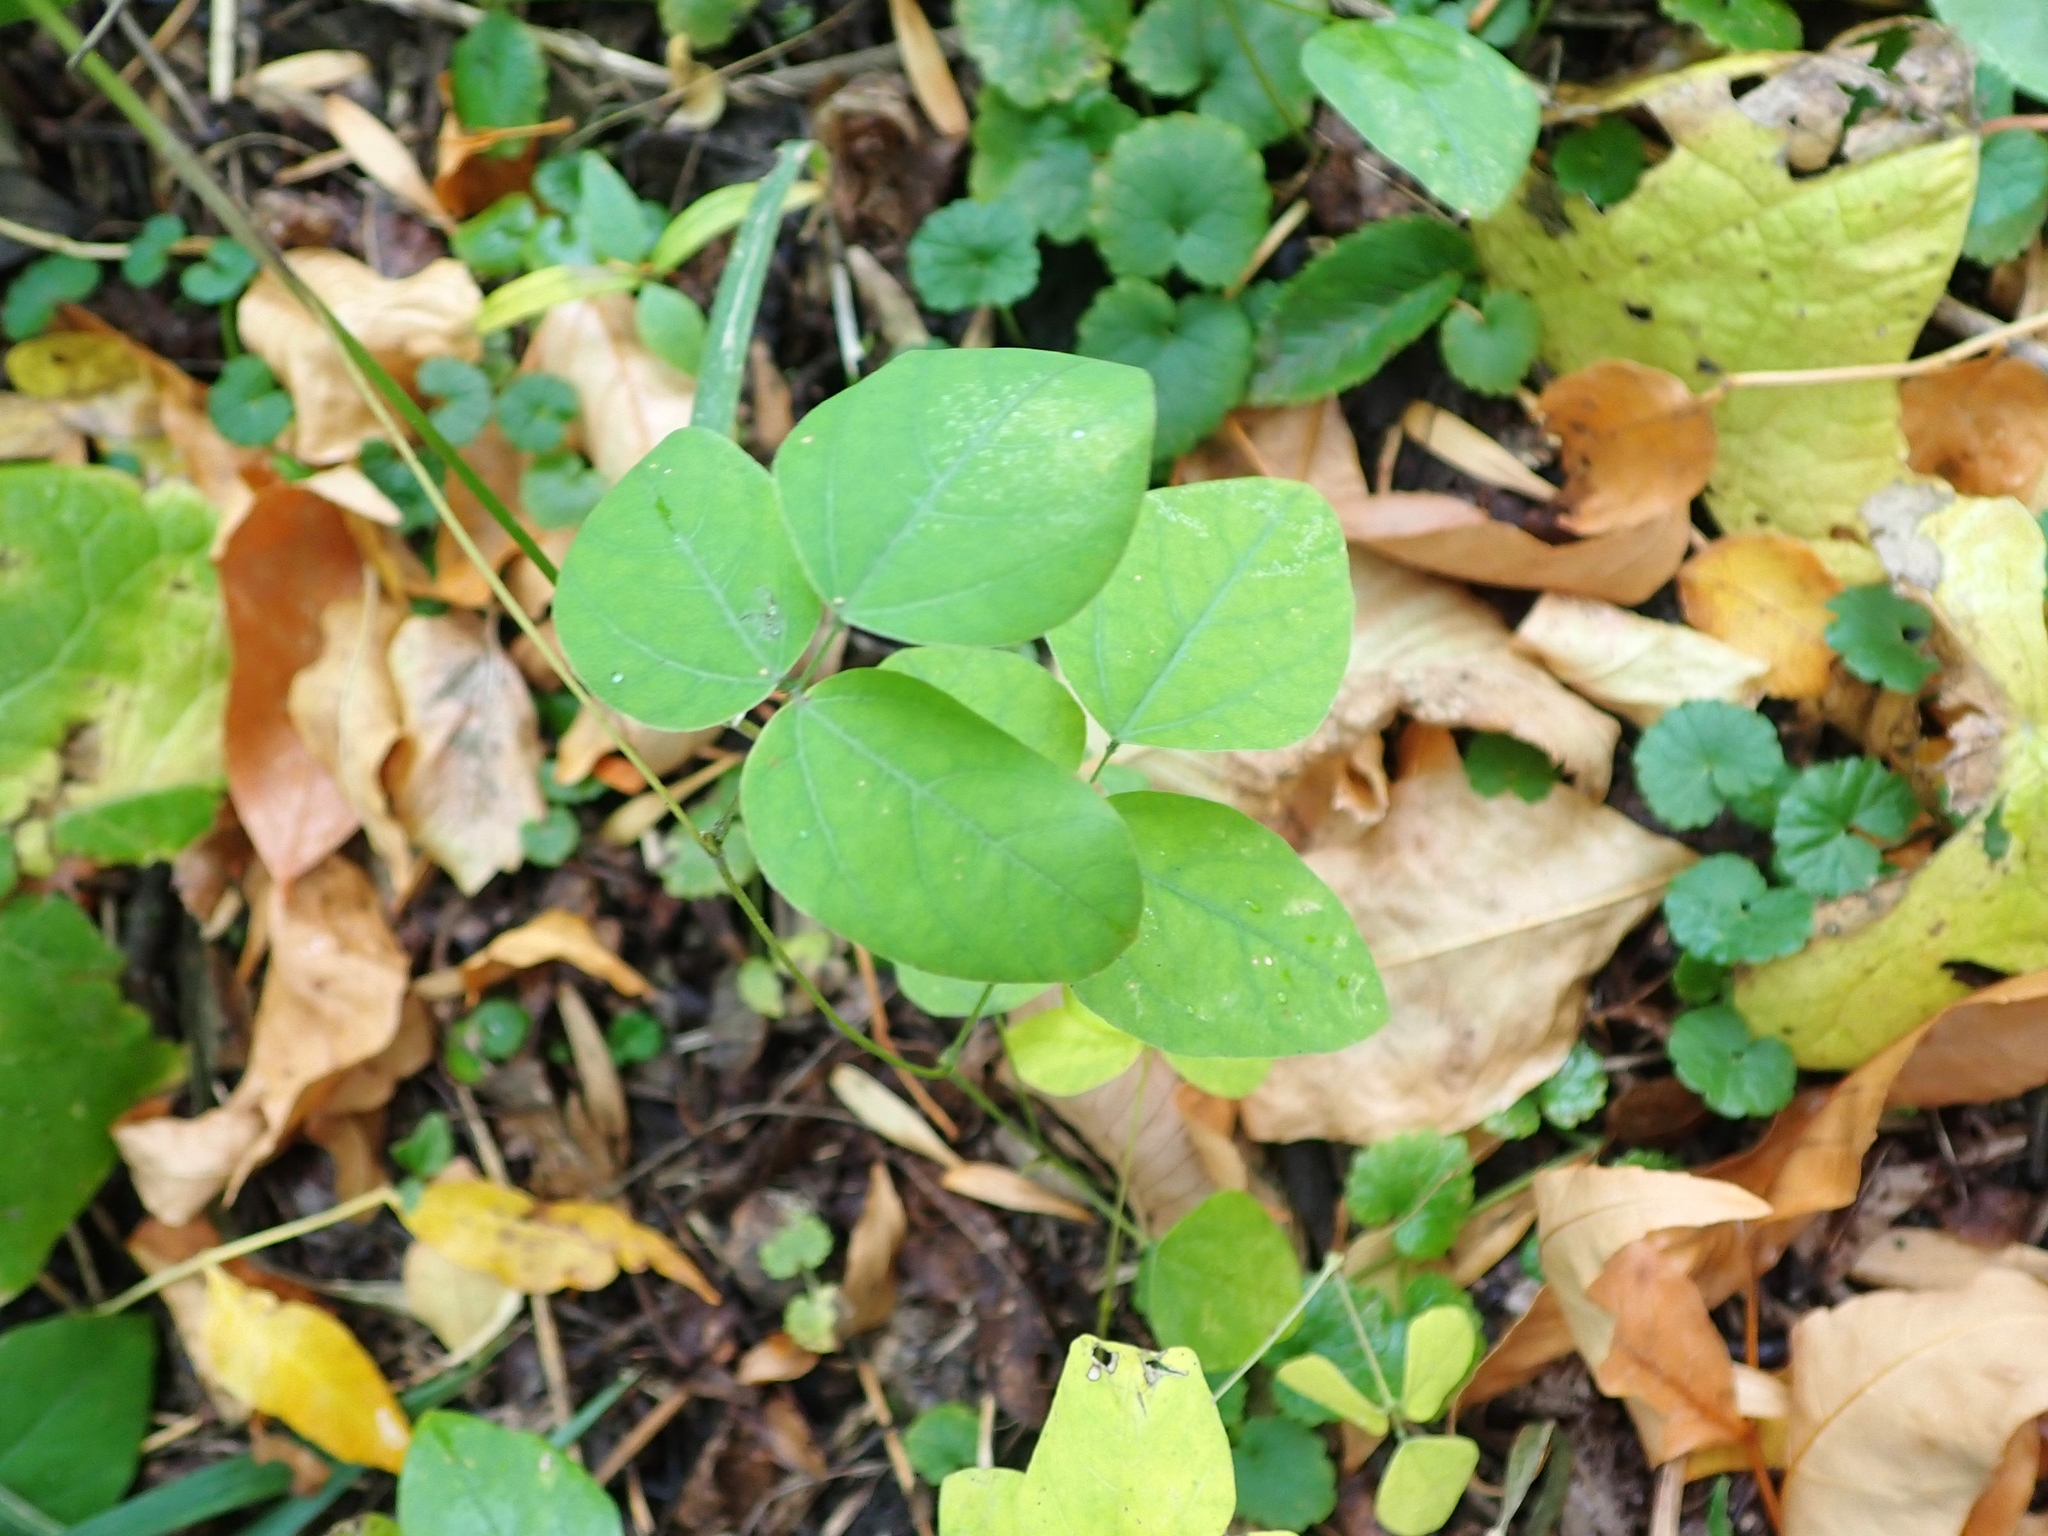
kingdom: Plantae
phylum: Tracheophyta
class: Magnoliopsida
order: Fabales
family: Fabaceae
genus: Amphicarpaea
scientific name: Amphicarpaea bracteata
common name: American hog peanut
